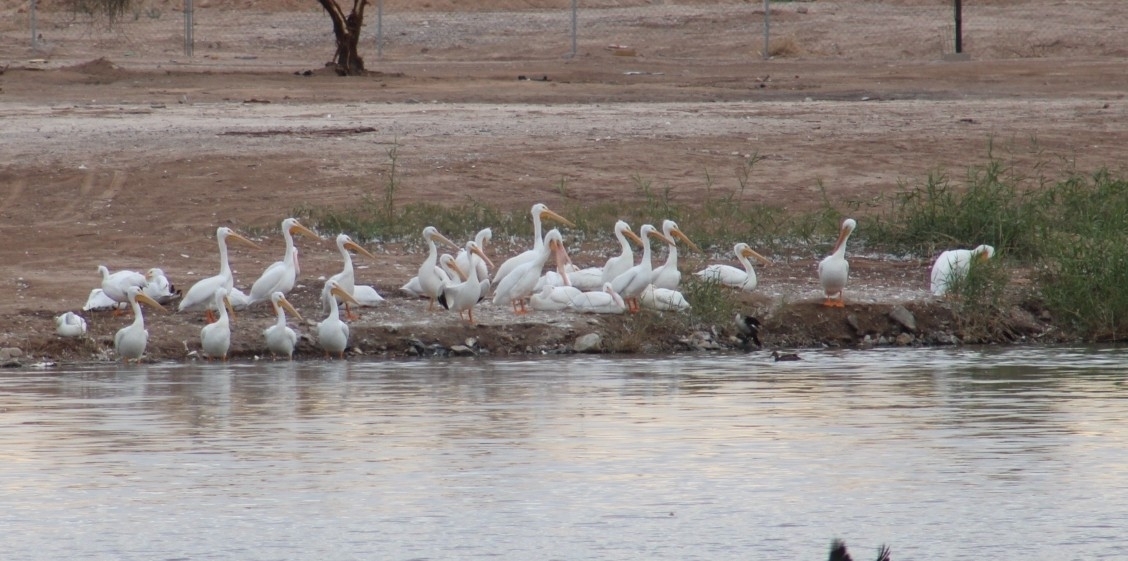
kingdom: Animalia
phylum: Chordata
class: Aves
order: Pelecaniformes
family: Pelecanidae
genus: Pelecanus
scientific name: Pelecanus erythrorhynchos
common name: American white pelican
